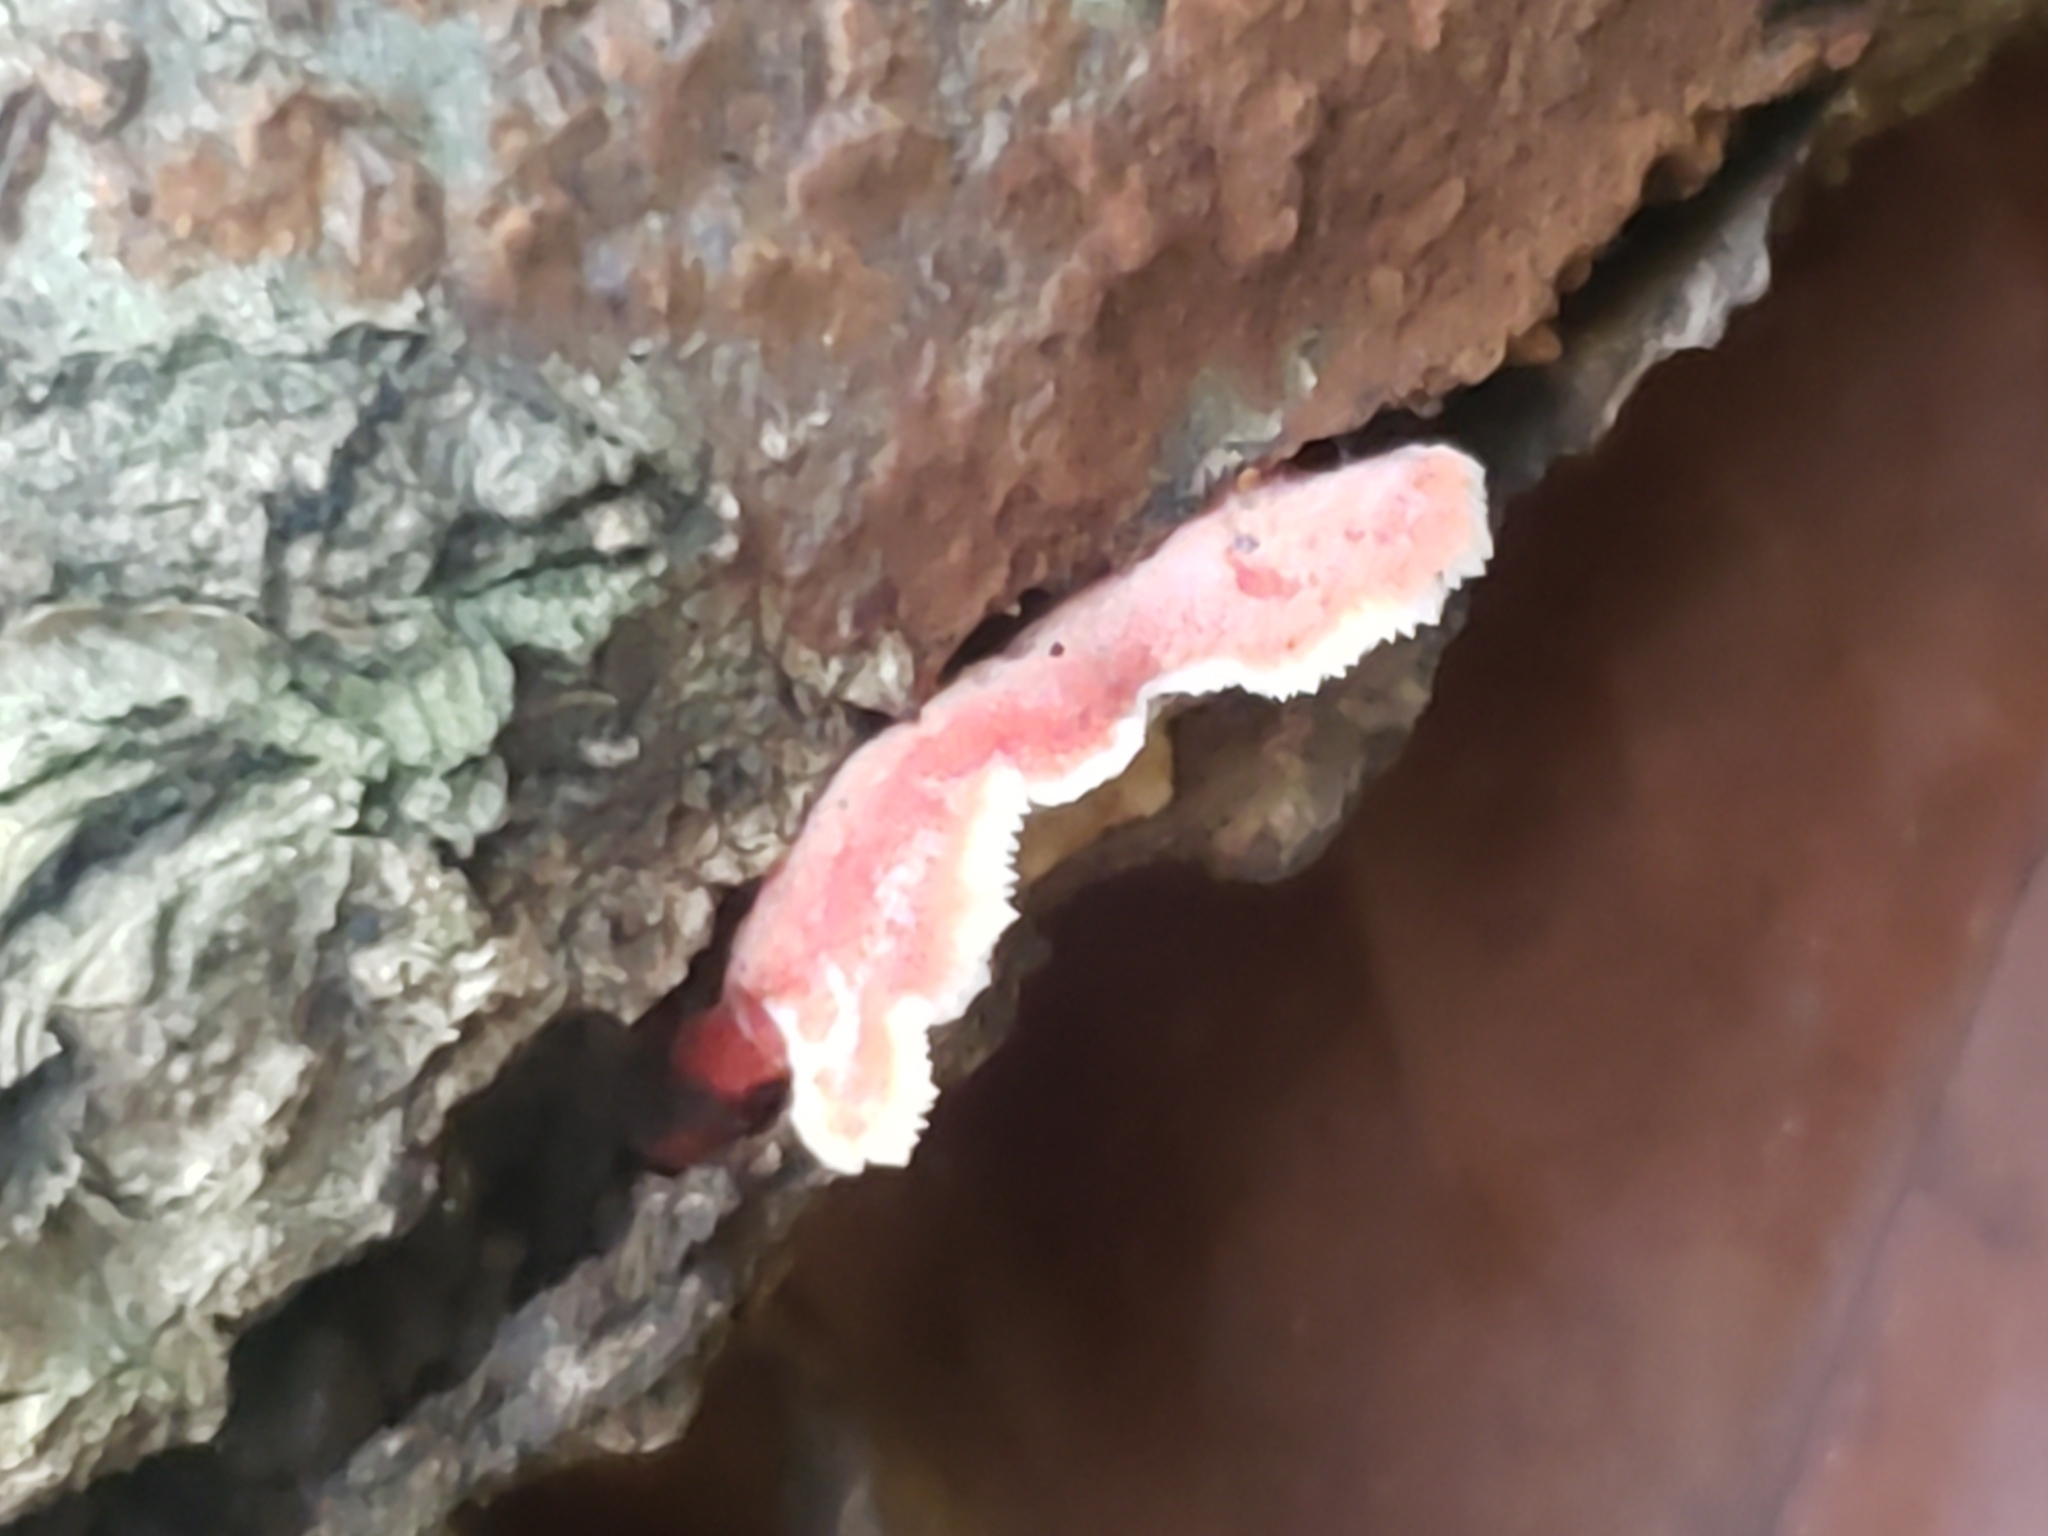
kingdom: Fungi
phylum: Basidiomycota
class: Agaricomycetes
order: Polyporales
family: Irpicaceae
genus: Byssomerulius
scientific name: Byssomerulius incarnatus
